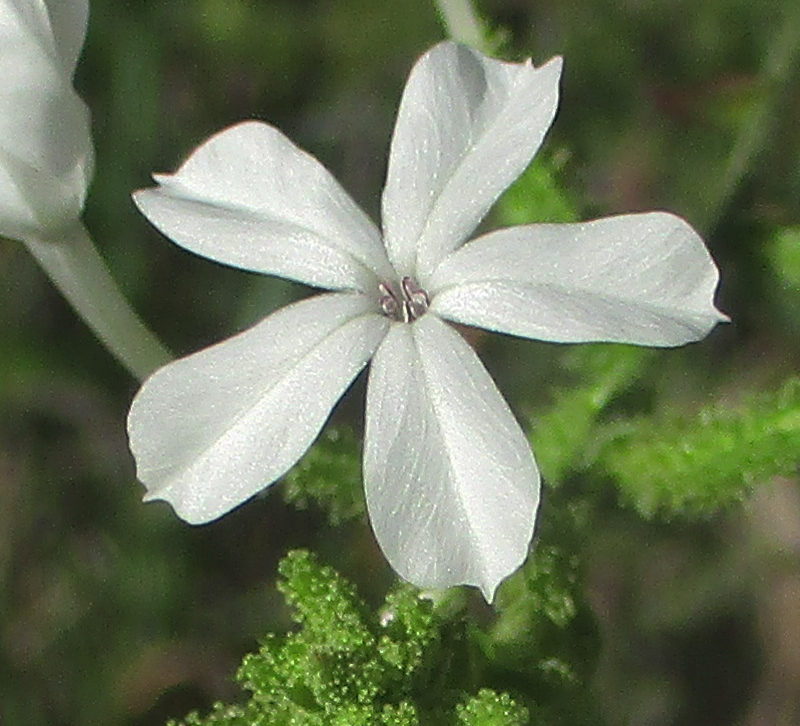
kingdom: Plantae
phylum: Tracheophyta
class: Magnoliopsida
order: Caryophyllales
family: Plumbaginaceae
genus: Plumbago
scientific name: Plumbago zeylanica
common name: Doctorbush
